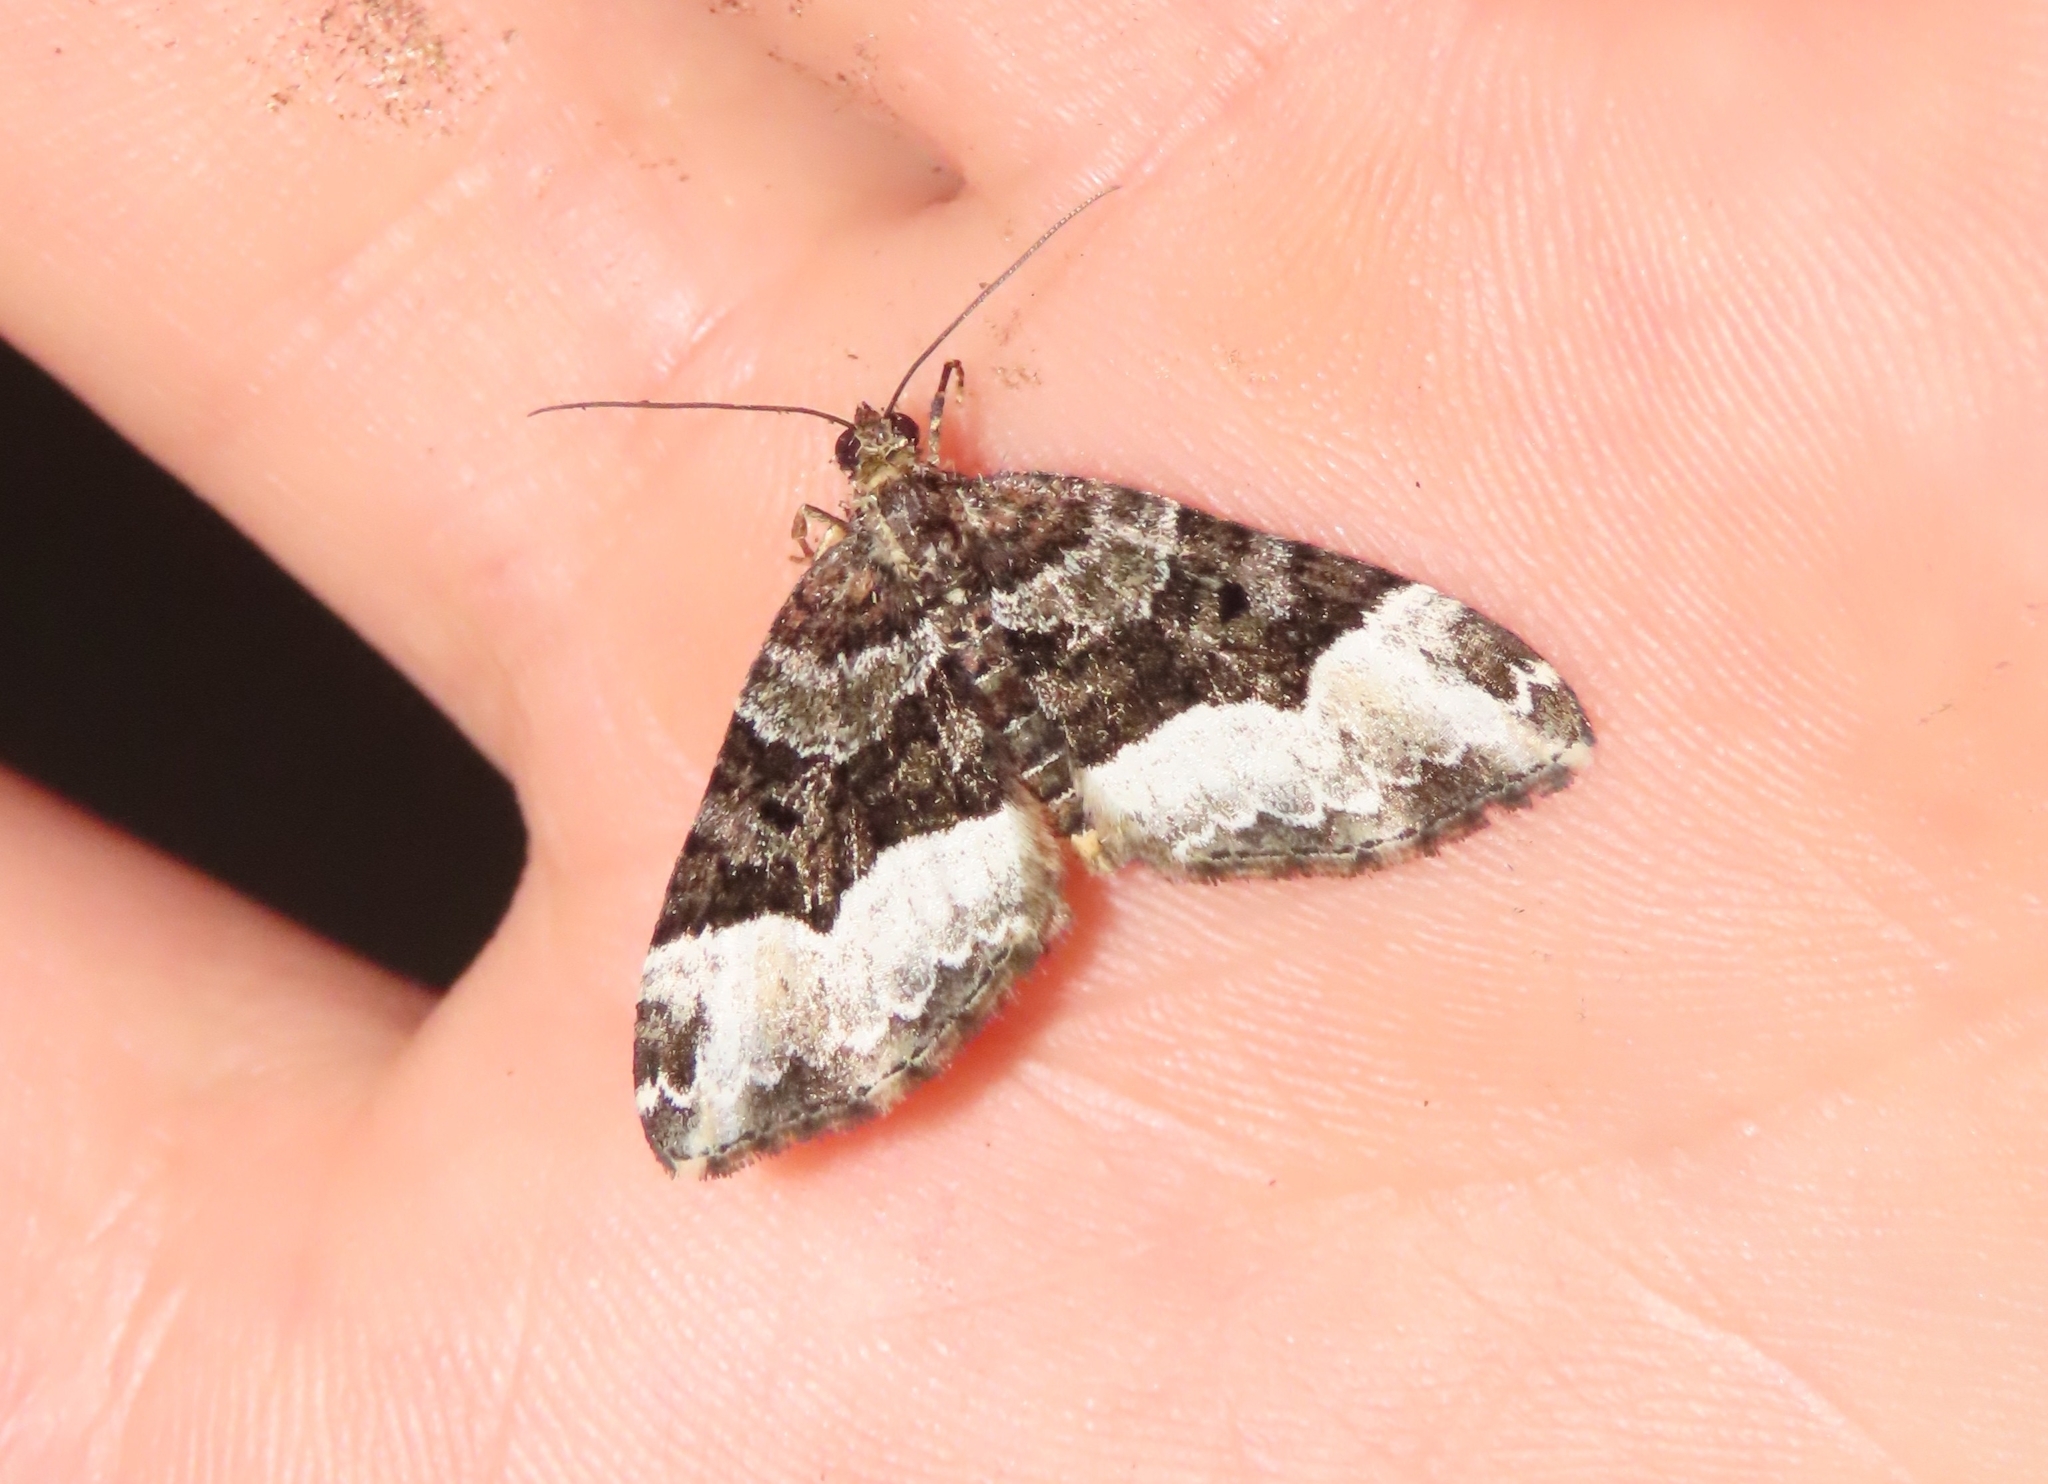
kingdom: Animalia
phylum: Arthropoda
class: Insecta
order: Lepidoptera
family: Geometridae
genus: Euphyia
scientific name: Euphyia intermediata
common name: Sharp-angled carpet
